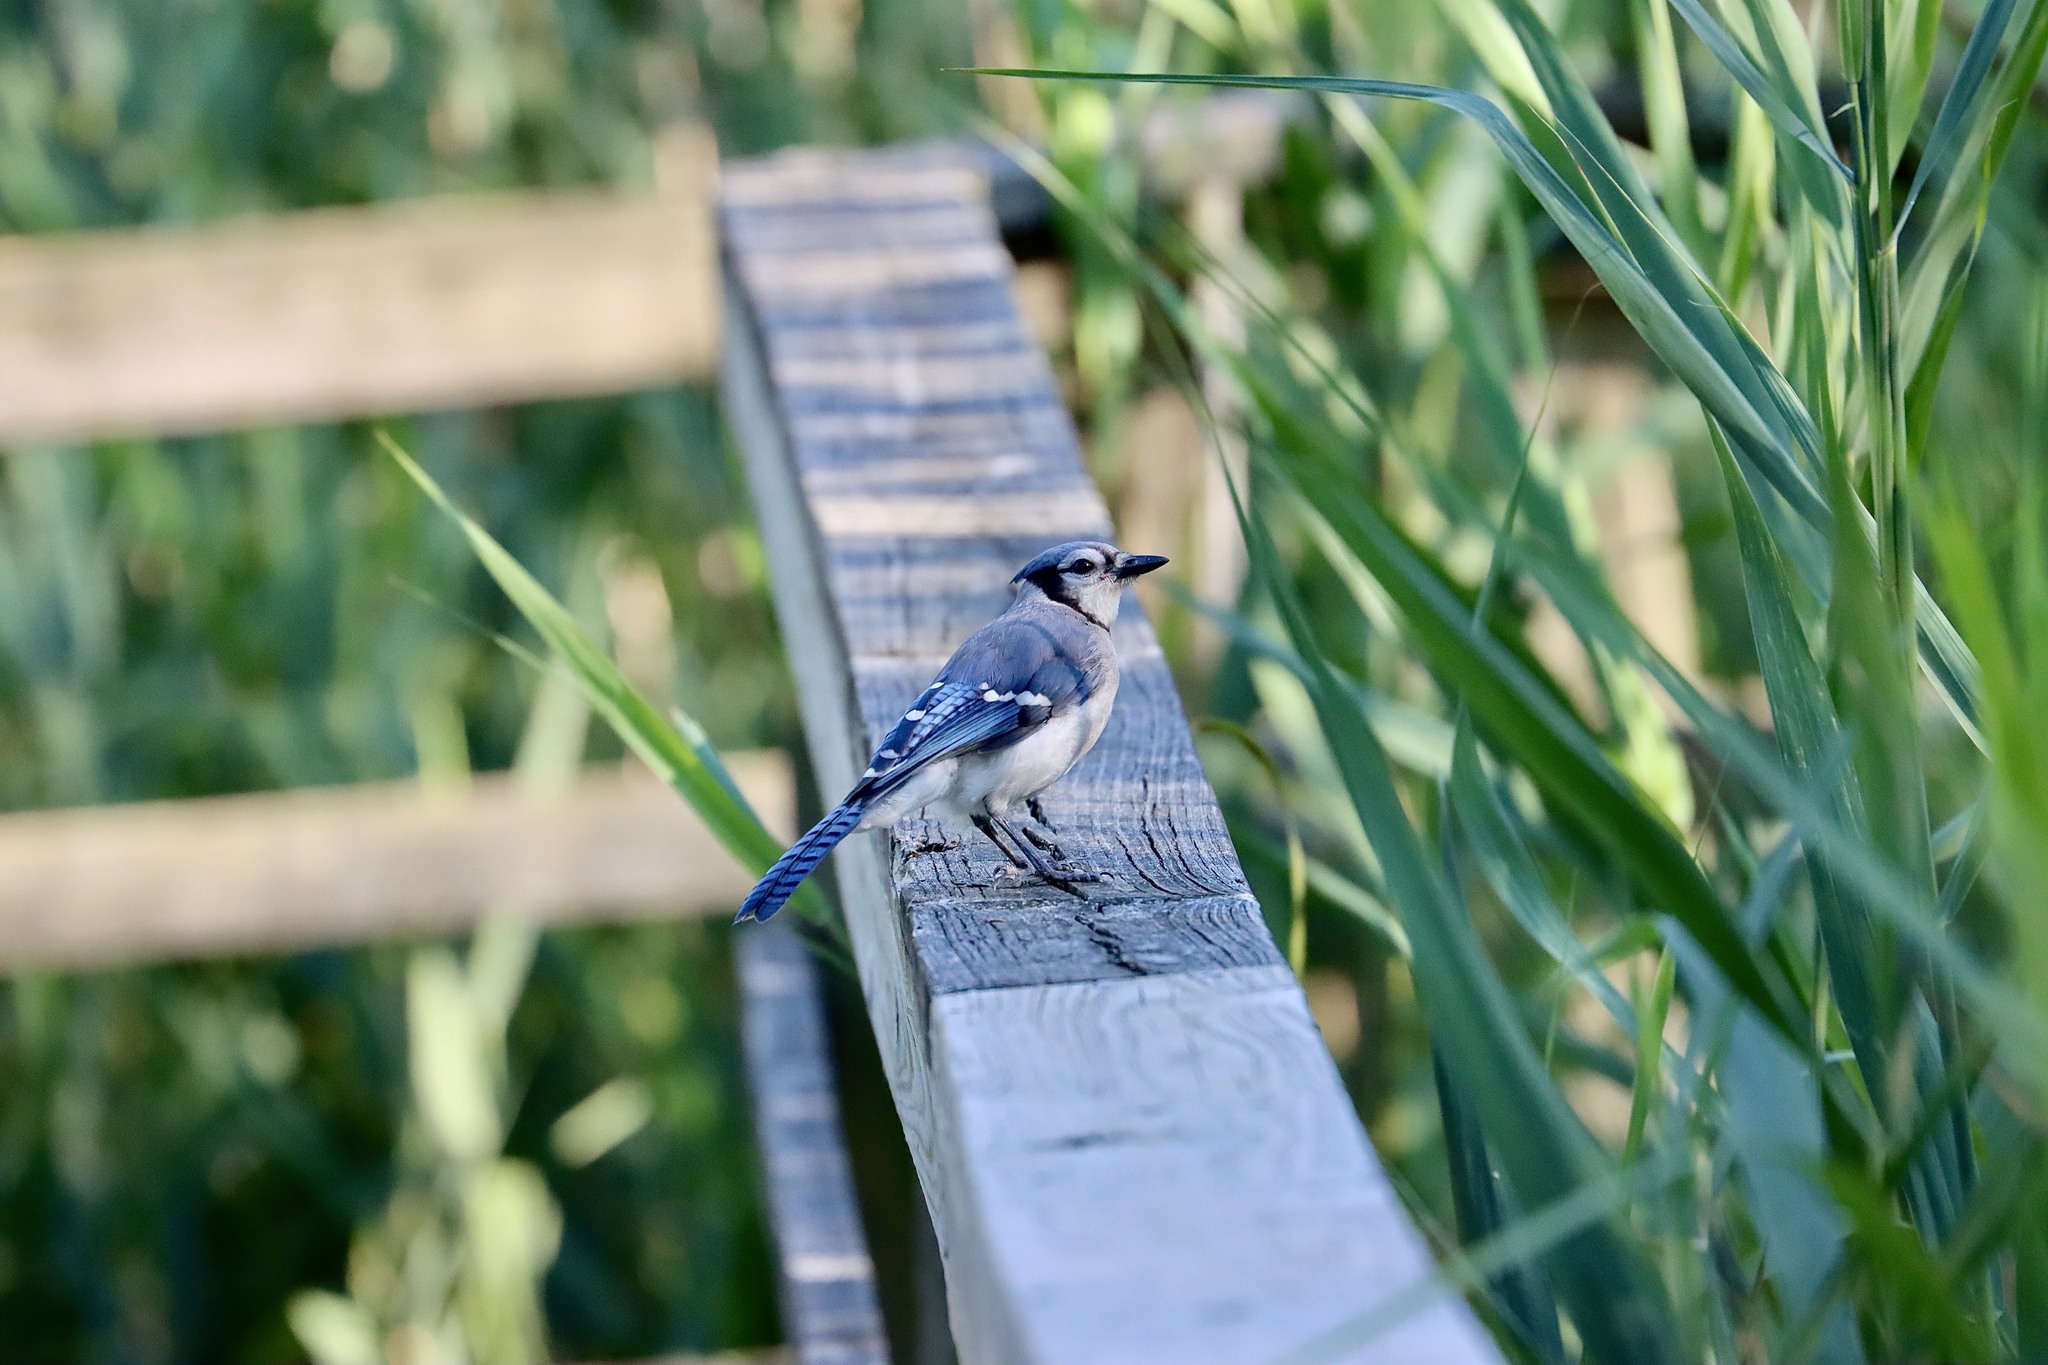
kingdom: Animalia
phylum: Chordata
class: Aves
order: Passeriformes
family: Corvidae
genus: Cyanocitta
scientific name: Cyanocitta cristata
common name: Blue jay
